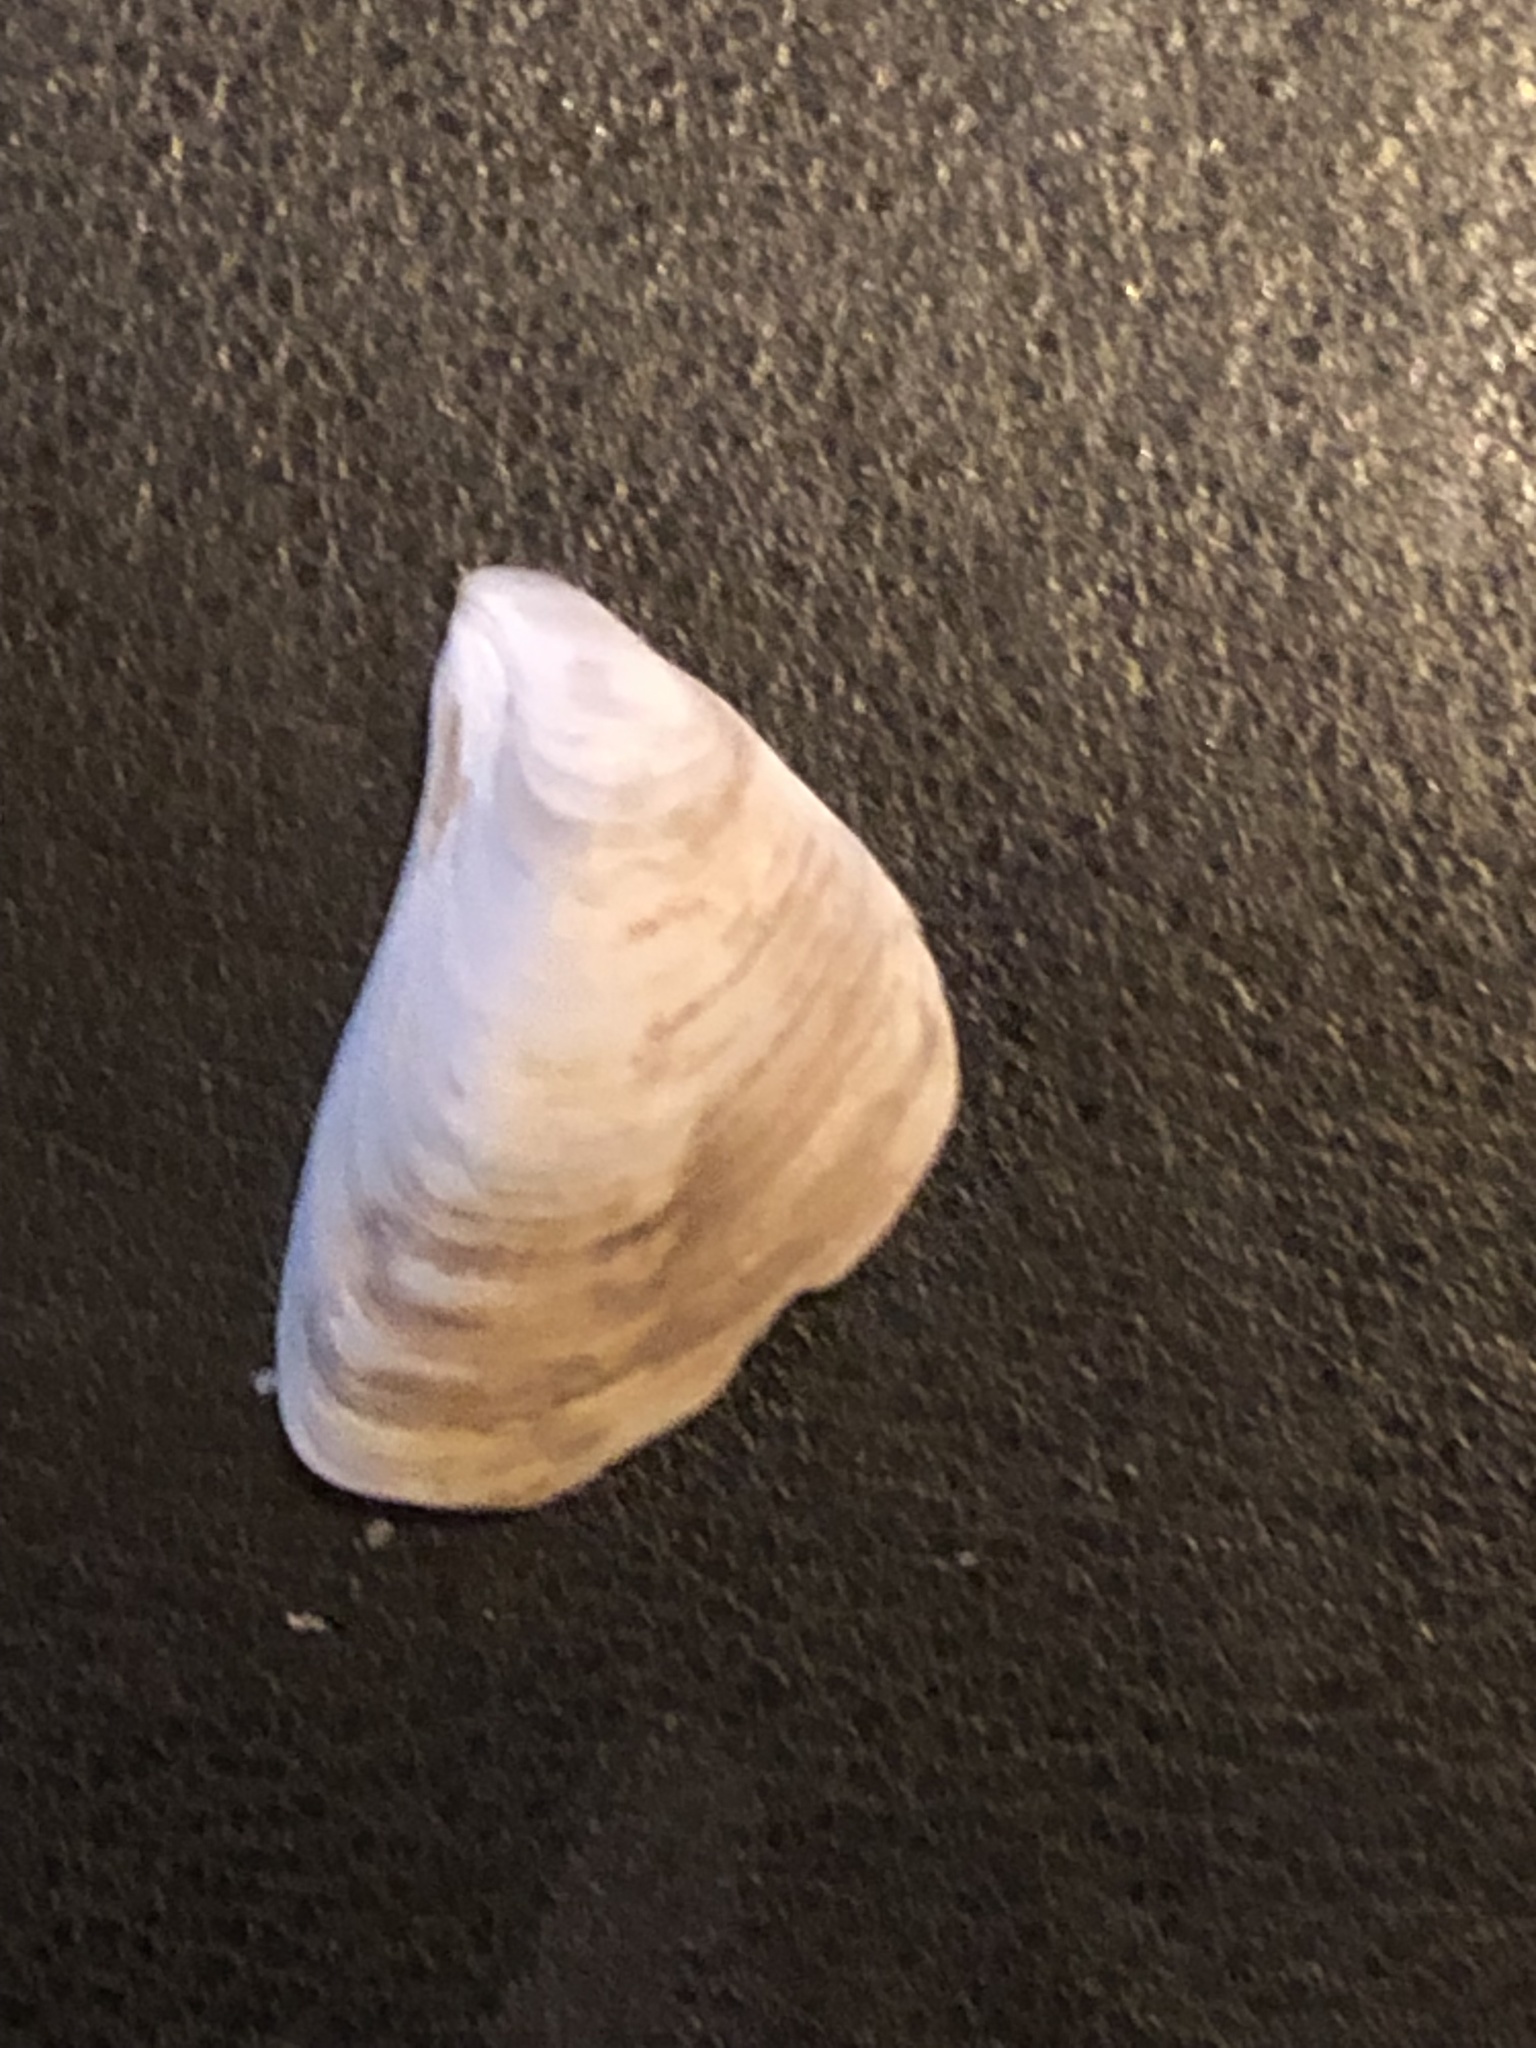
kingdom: Animalia
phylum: Mollusca
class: Bivalvia
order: Myida
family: Dreissenidae
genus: Dreissena
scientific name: Dreissena bugensis
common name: Quagga mussel
